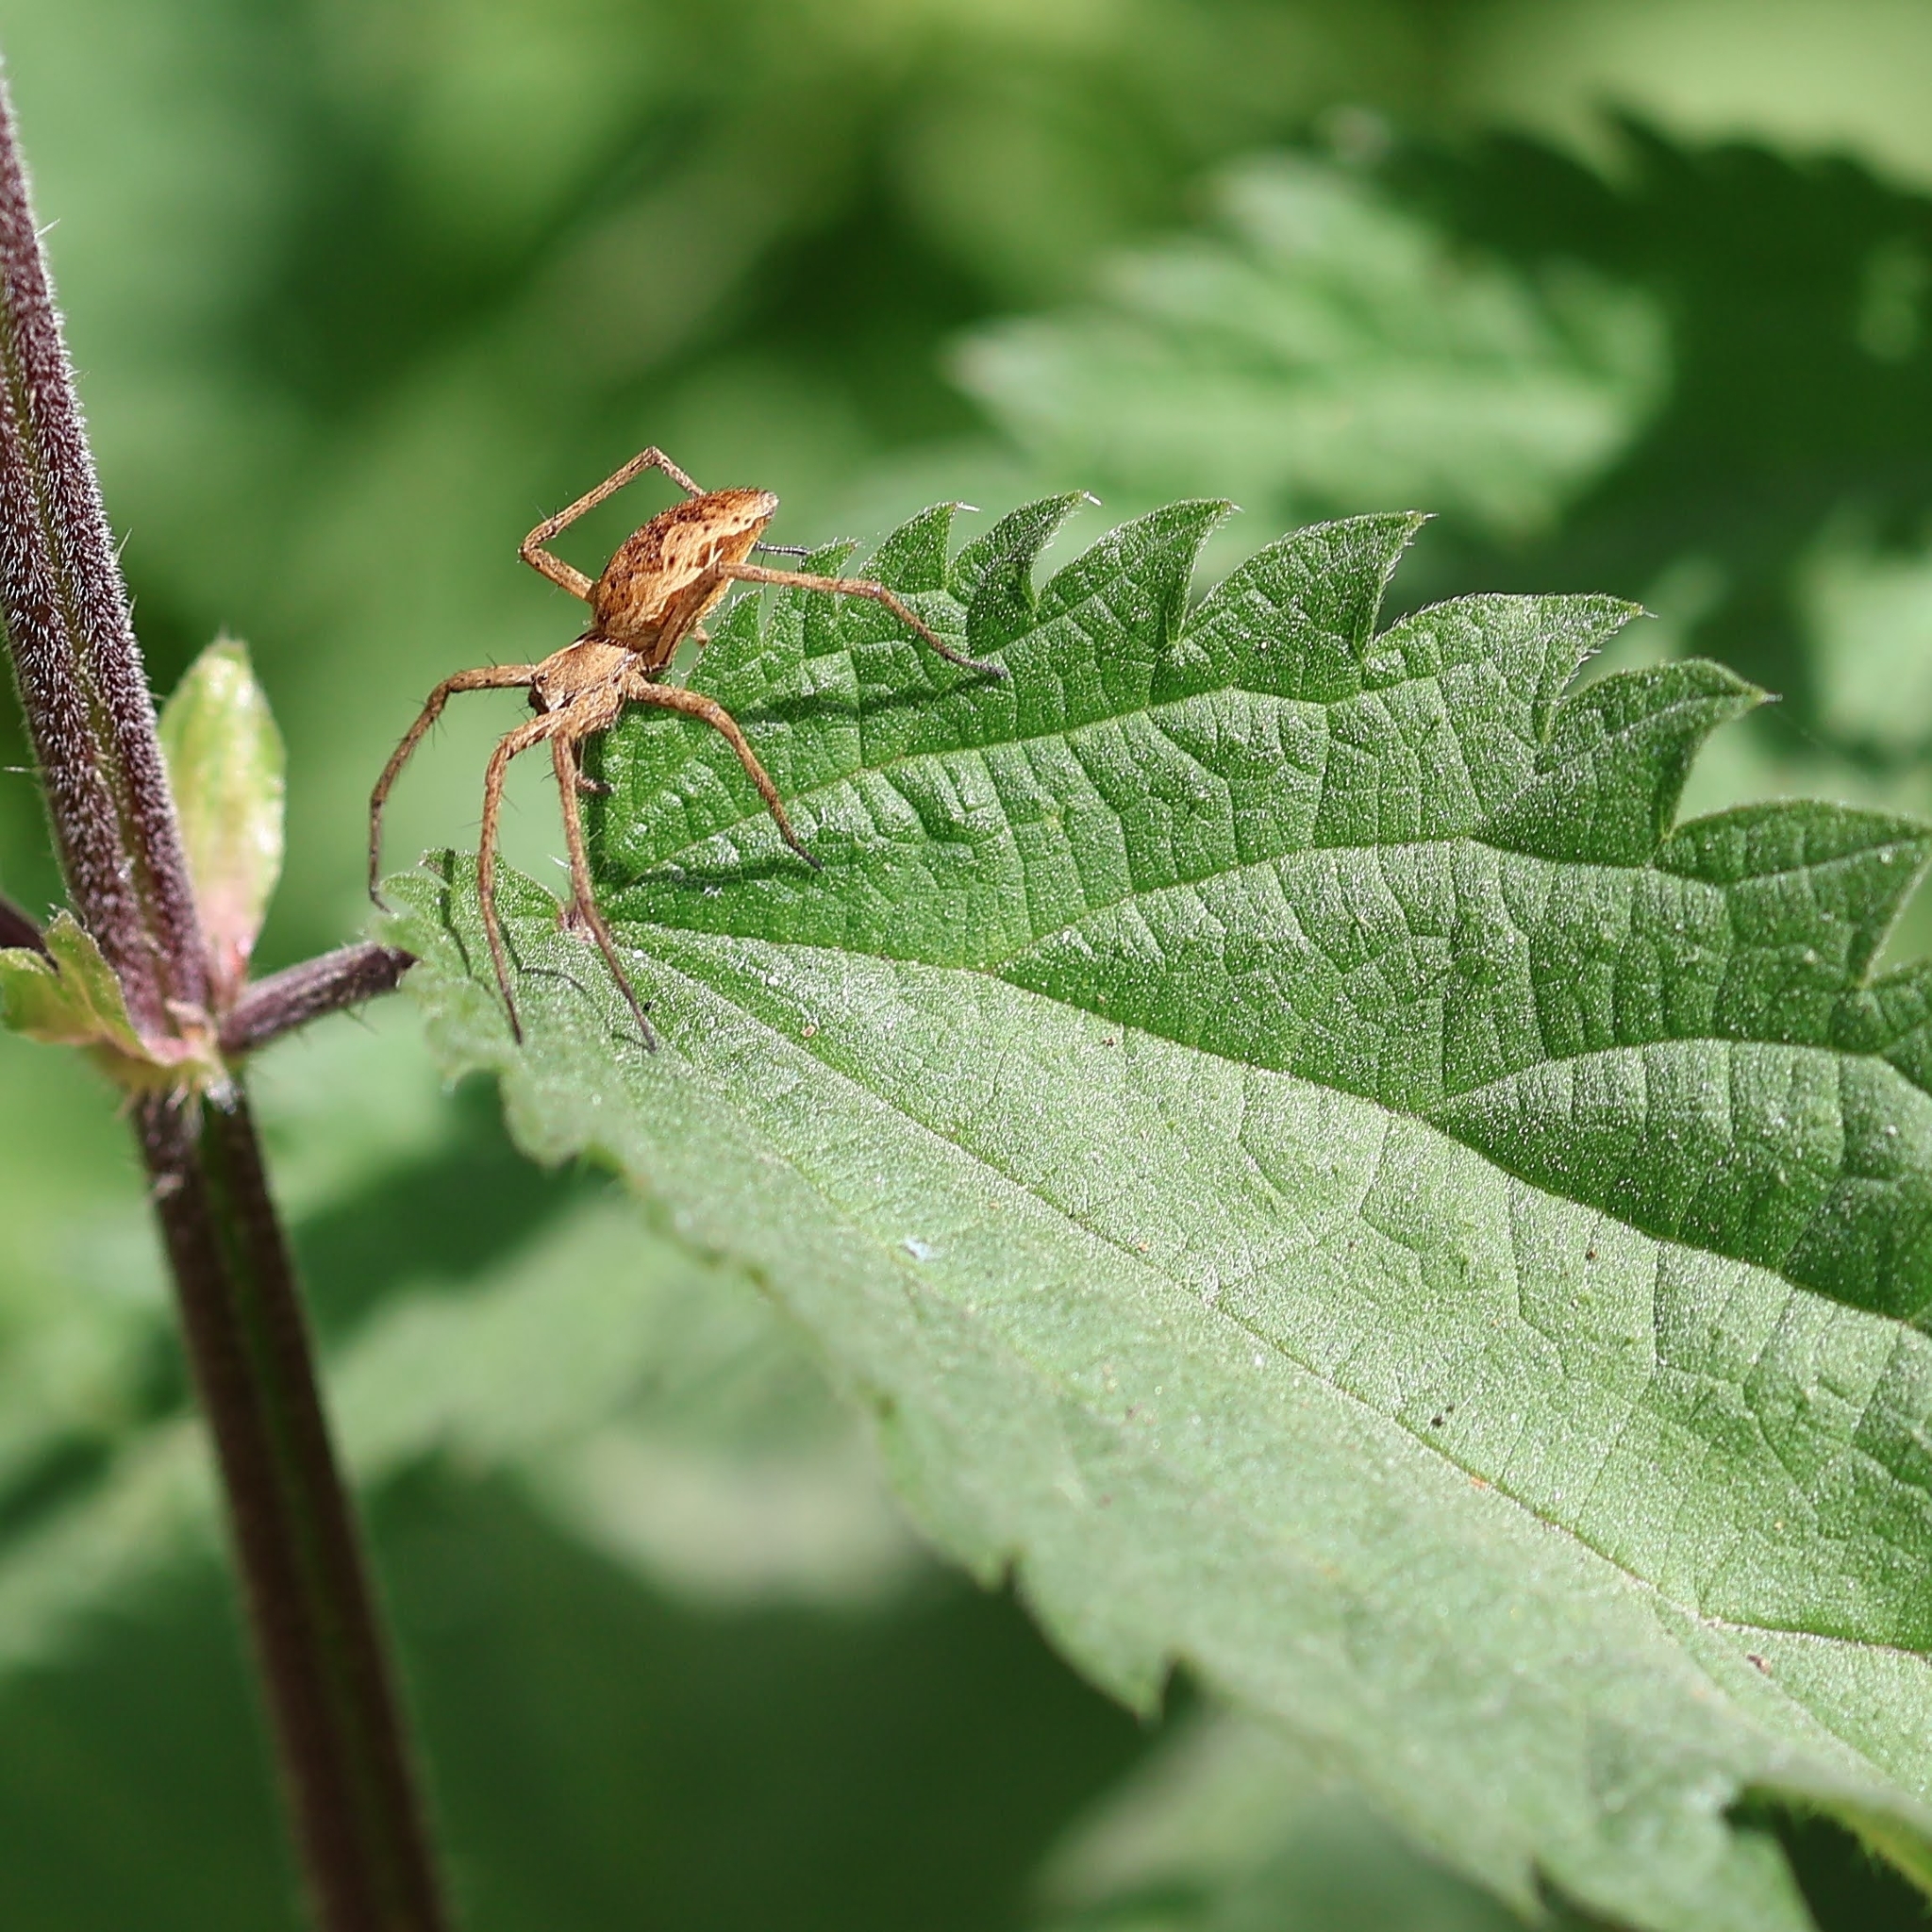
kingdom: Animalia
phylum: Arthropoda
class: Arachnida
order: Araneae
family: Pisauridae
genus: Pisaura
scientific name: Pisaura mirabilis
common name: Tent spider
